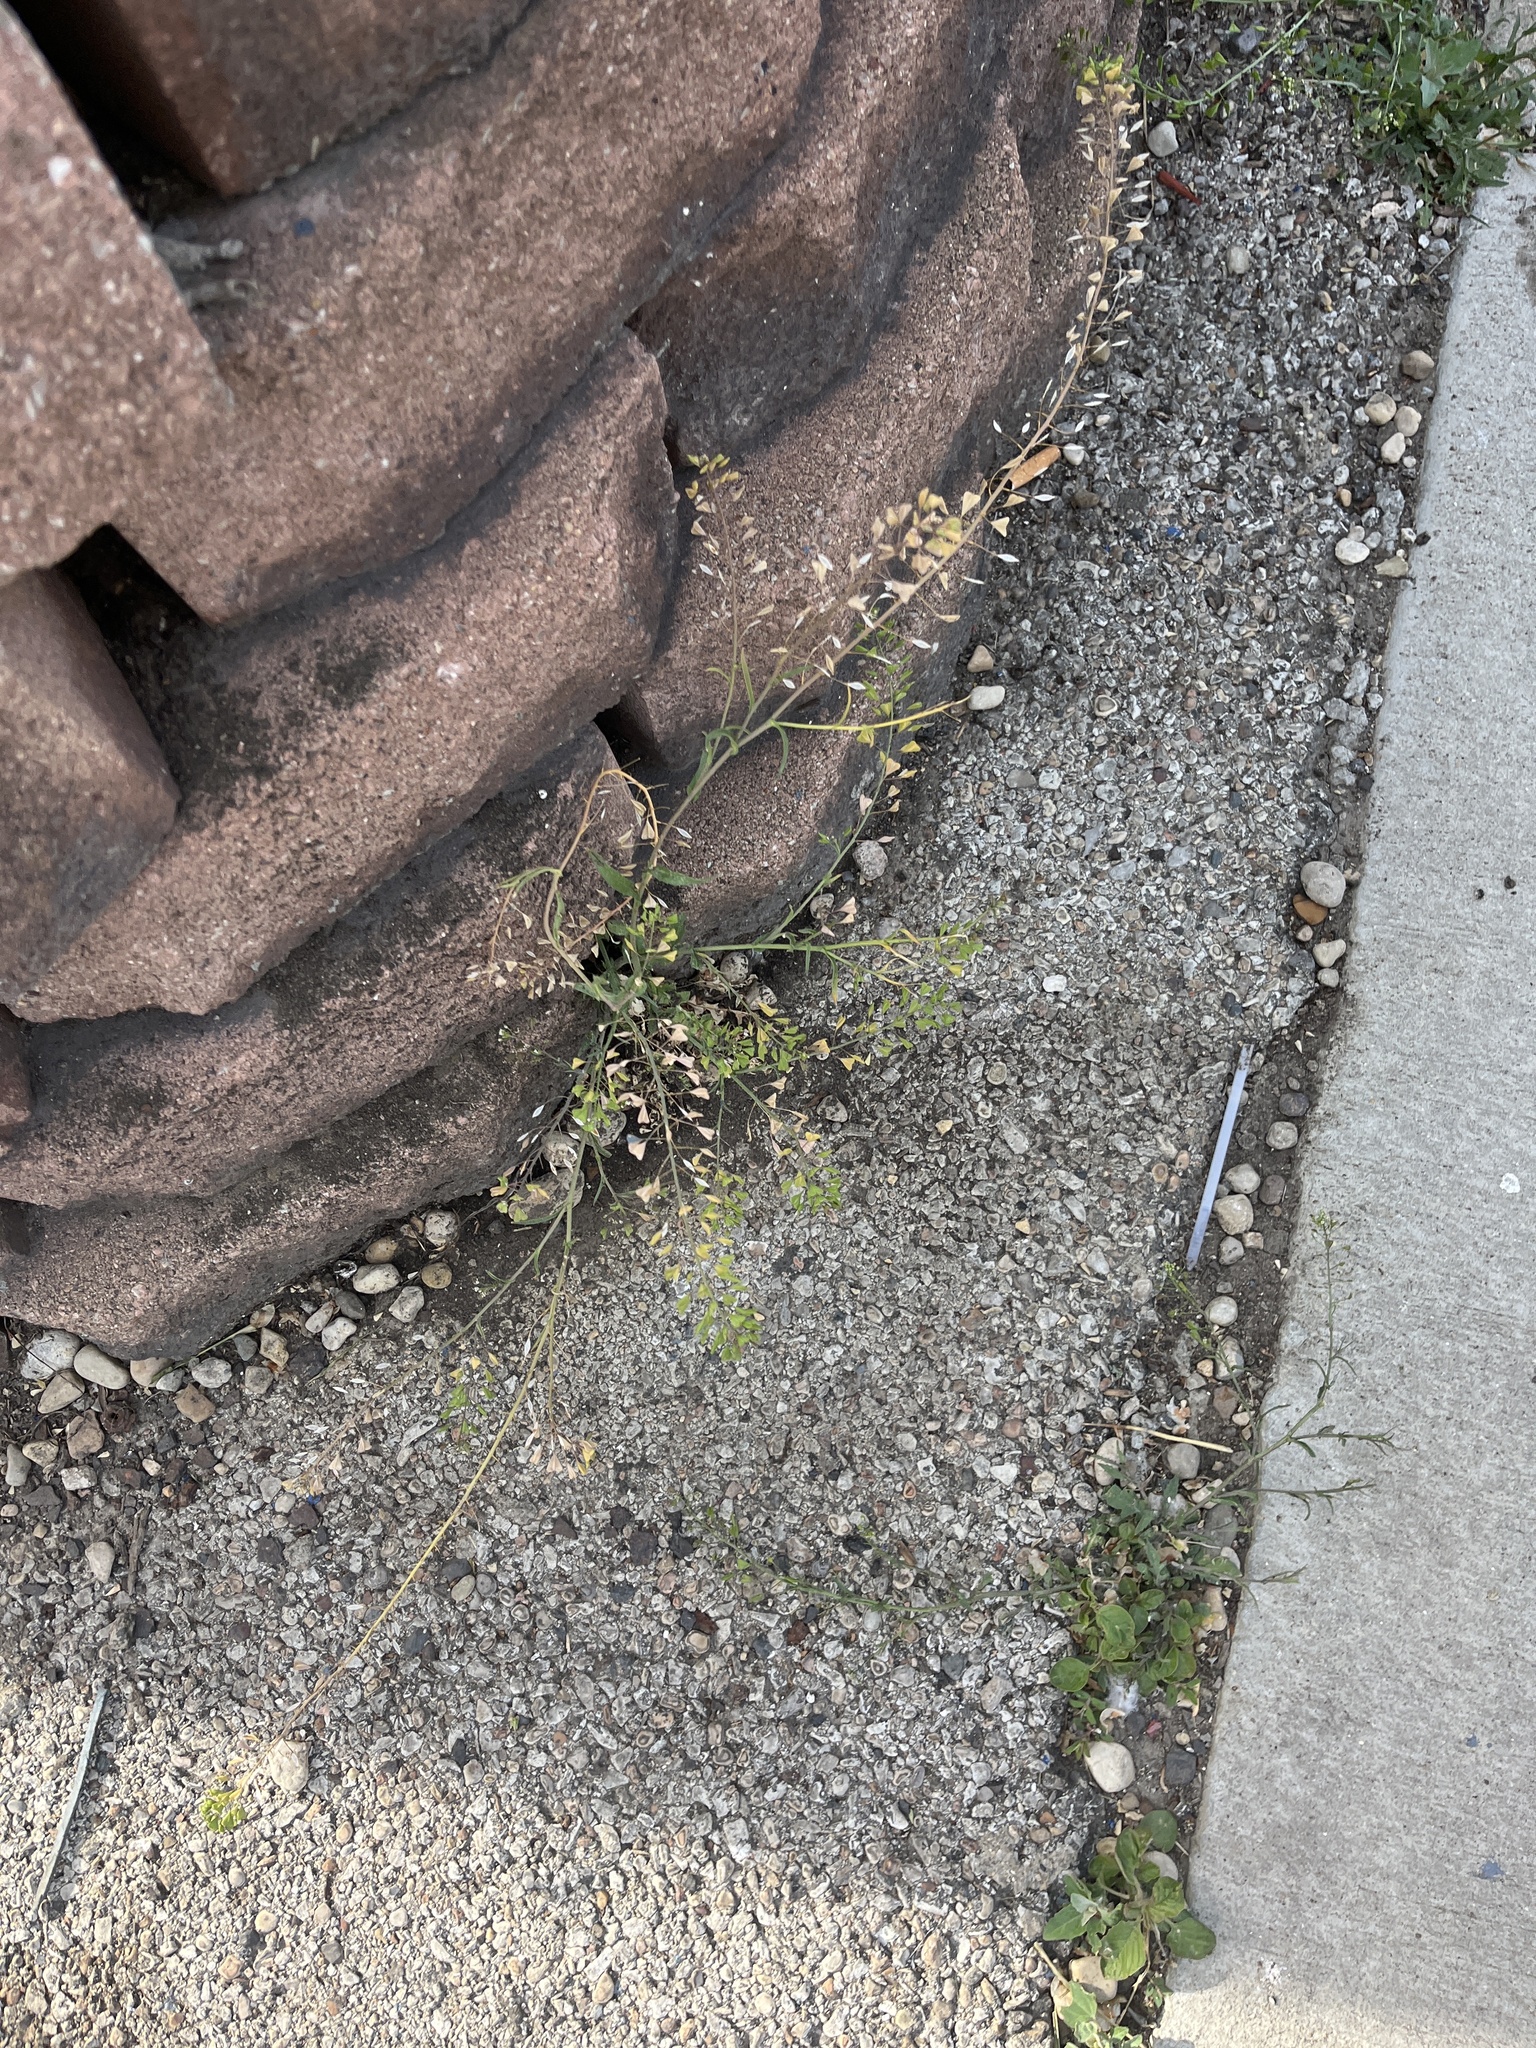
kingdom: Plantae
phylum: Tracheophyta
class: Magnoliopsida
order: Brassicales
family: Brassicaceae
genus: Capsella
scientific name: Capsella bursa-pastoris
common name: Shepherd's purse
